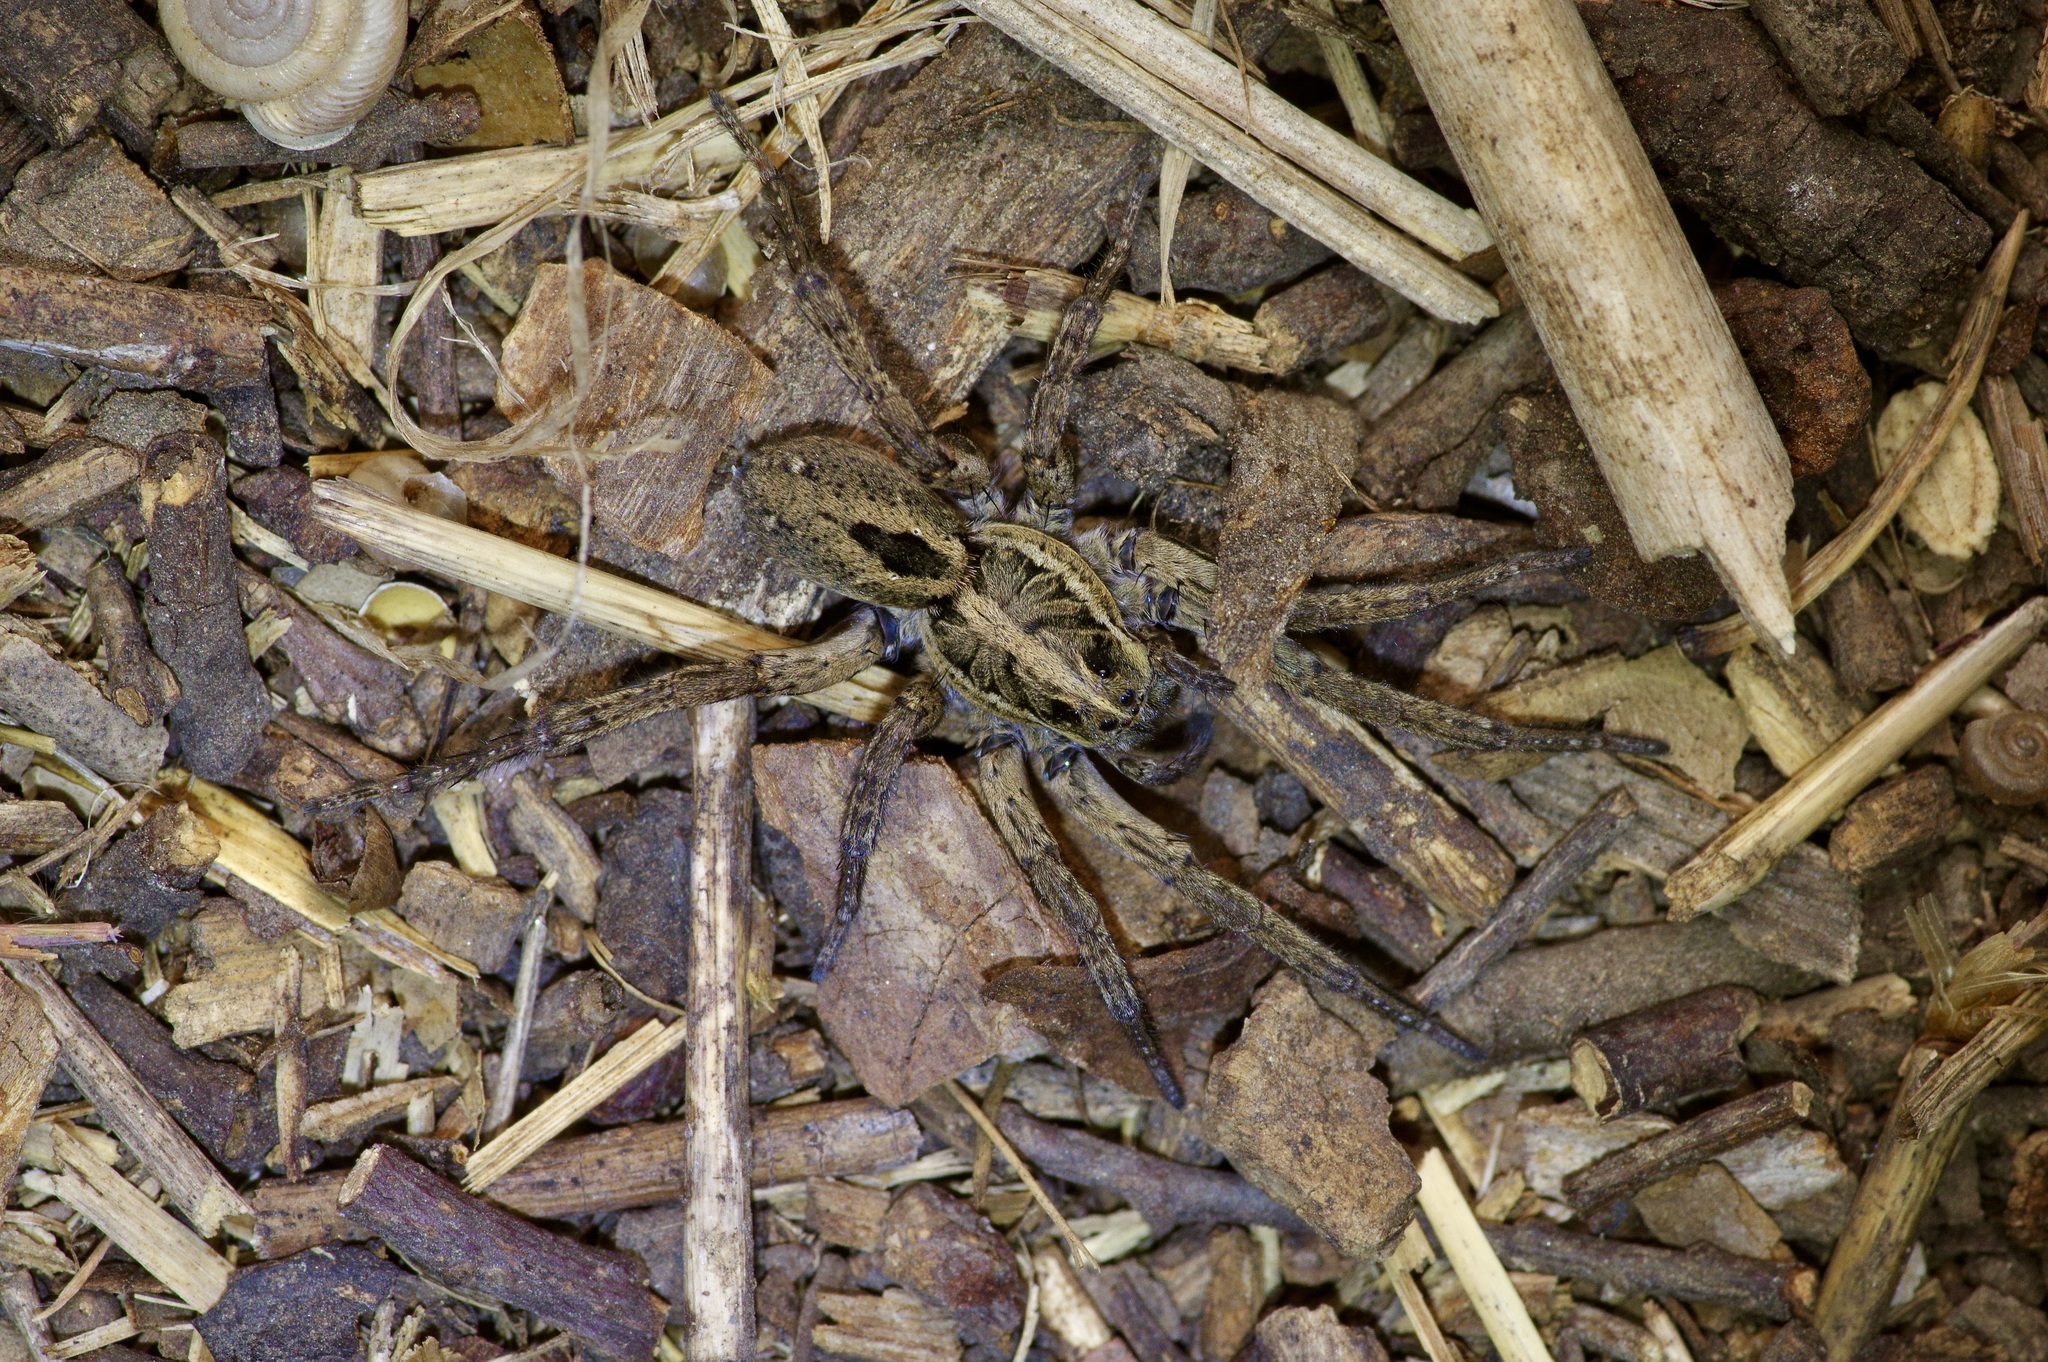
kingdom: Animalia
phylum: Arthropoda
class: Arachnida
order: Araneae
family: Lycosidae
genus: Tigrosa
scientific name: Tigrosa annexa
